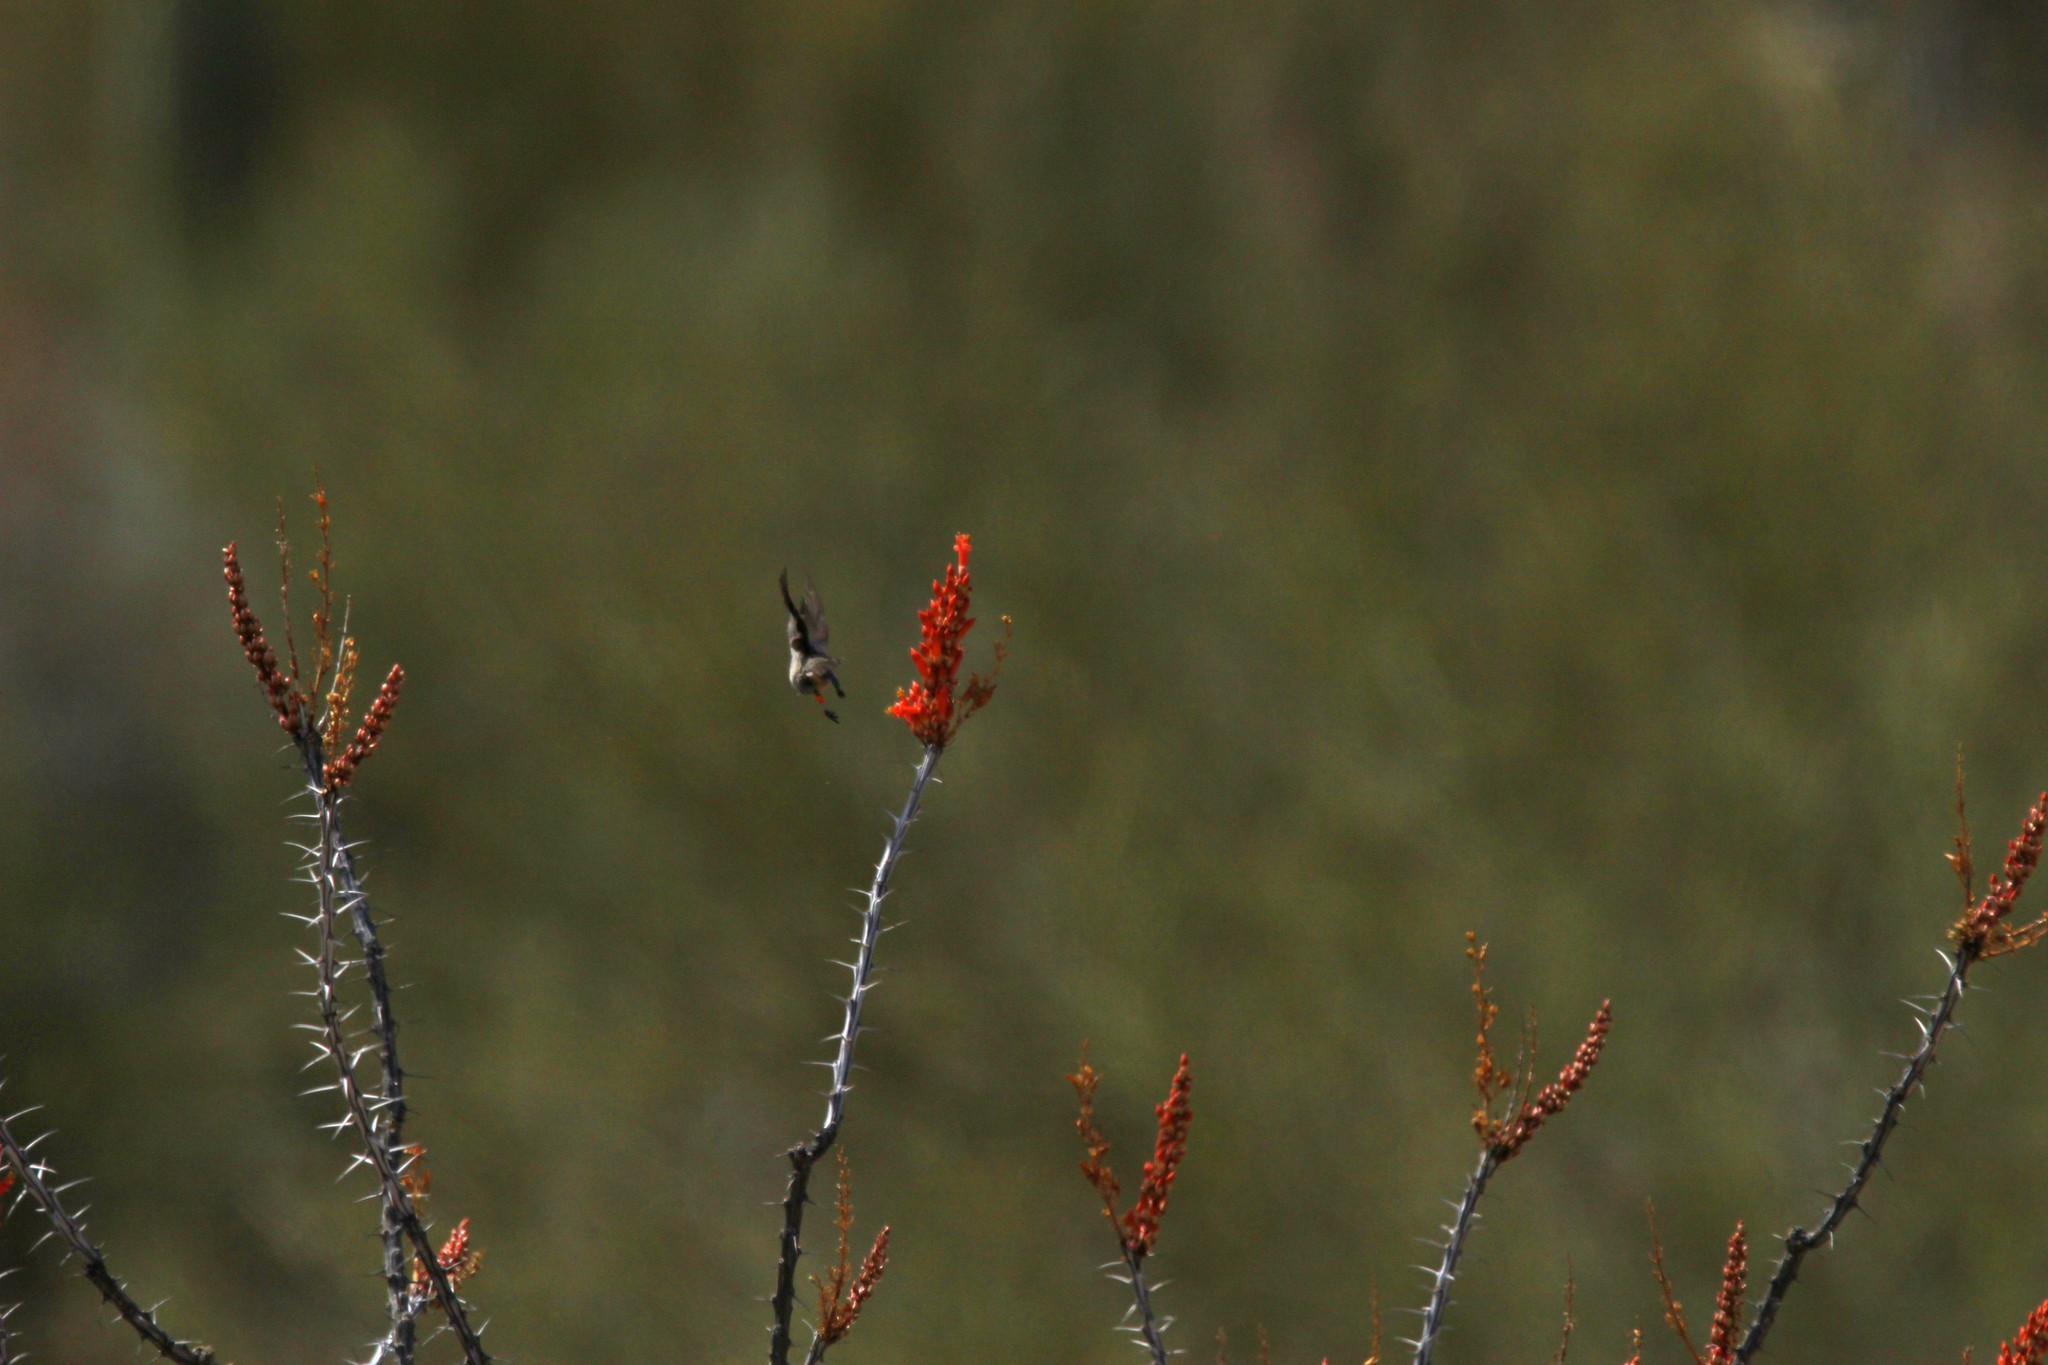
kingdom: Animalia
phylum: Chordata
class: Aves
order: Passeriformes
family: Remizidae
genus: Auriparus
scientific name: Auriparus flaviceps
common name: Verdin
